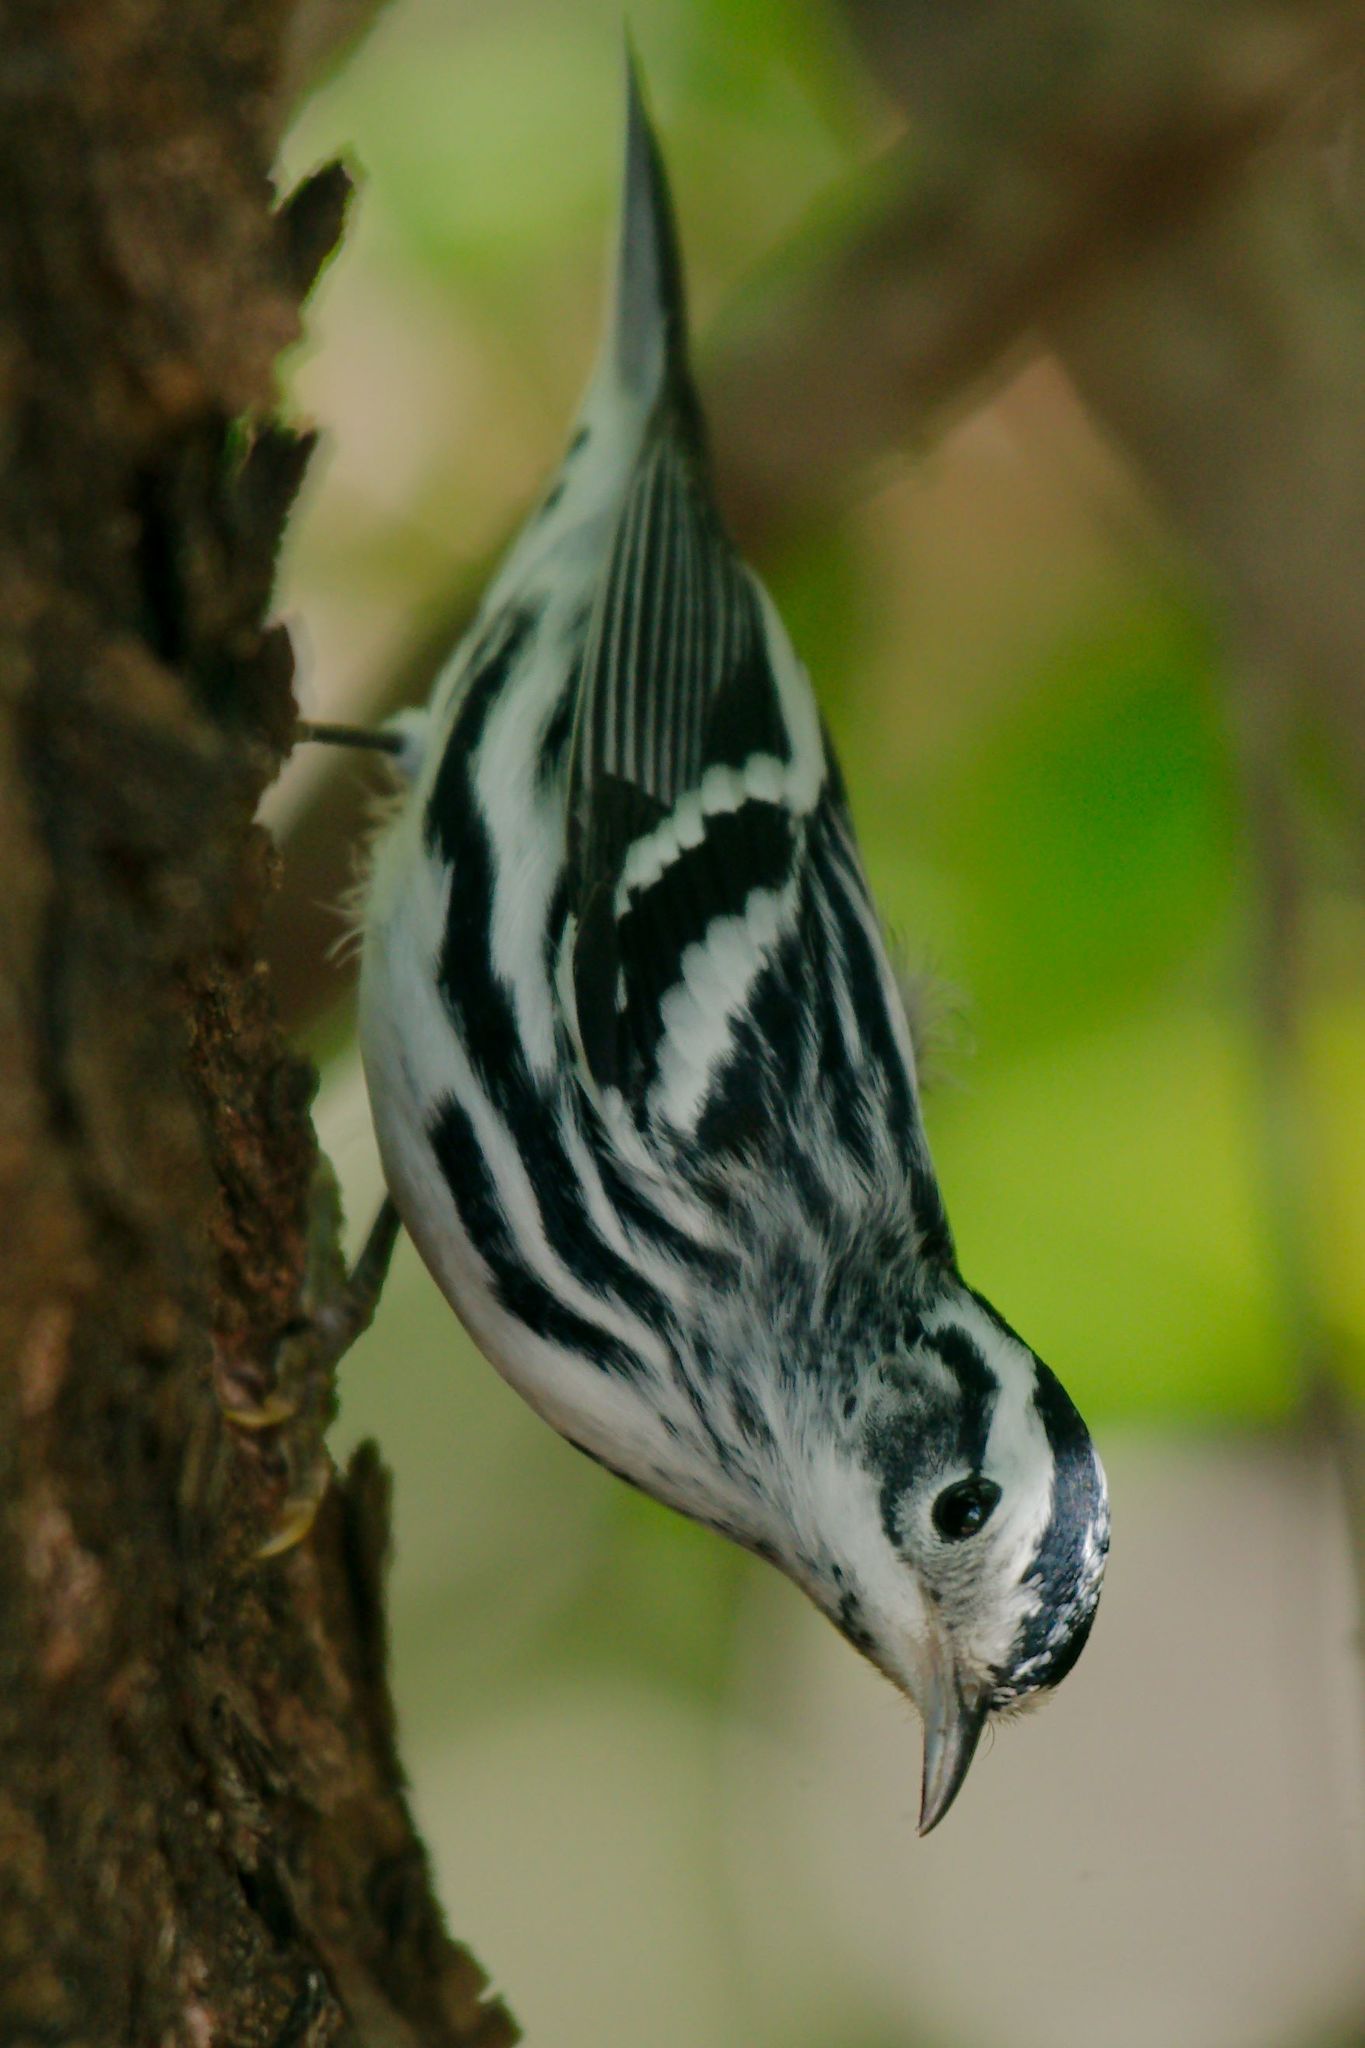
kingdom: Animalia
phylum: Chordata
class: Aves
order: Passeriformes
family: Parulidae
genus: Mniotilta
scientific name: Mniotilta varia
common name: Black-and-white warbler
